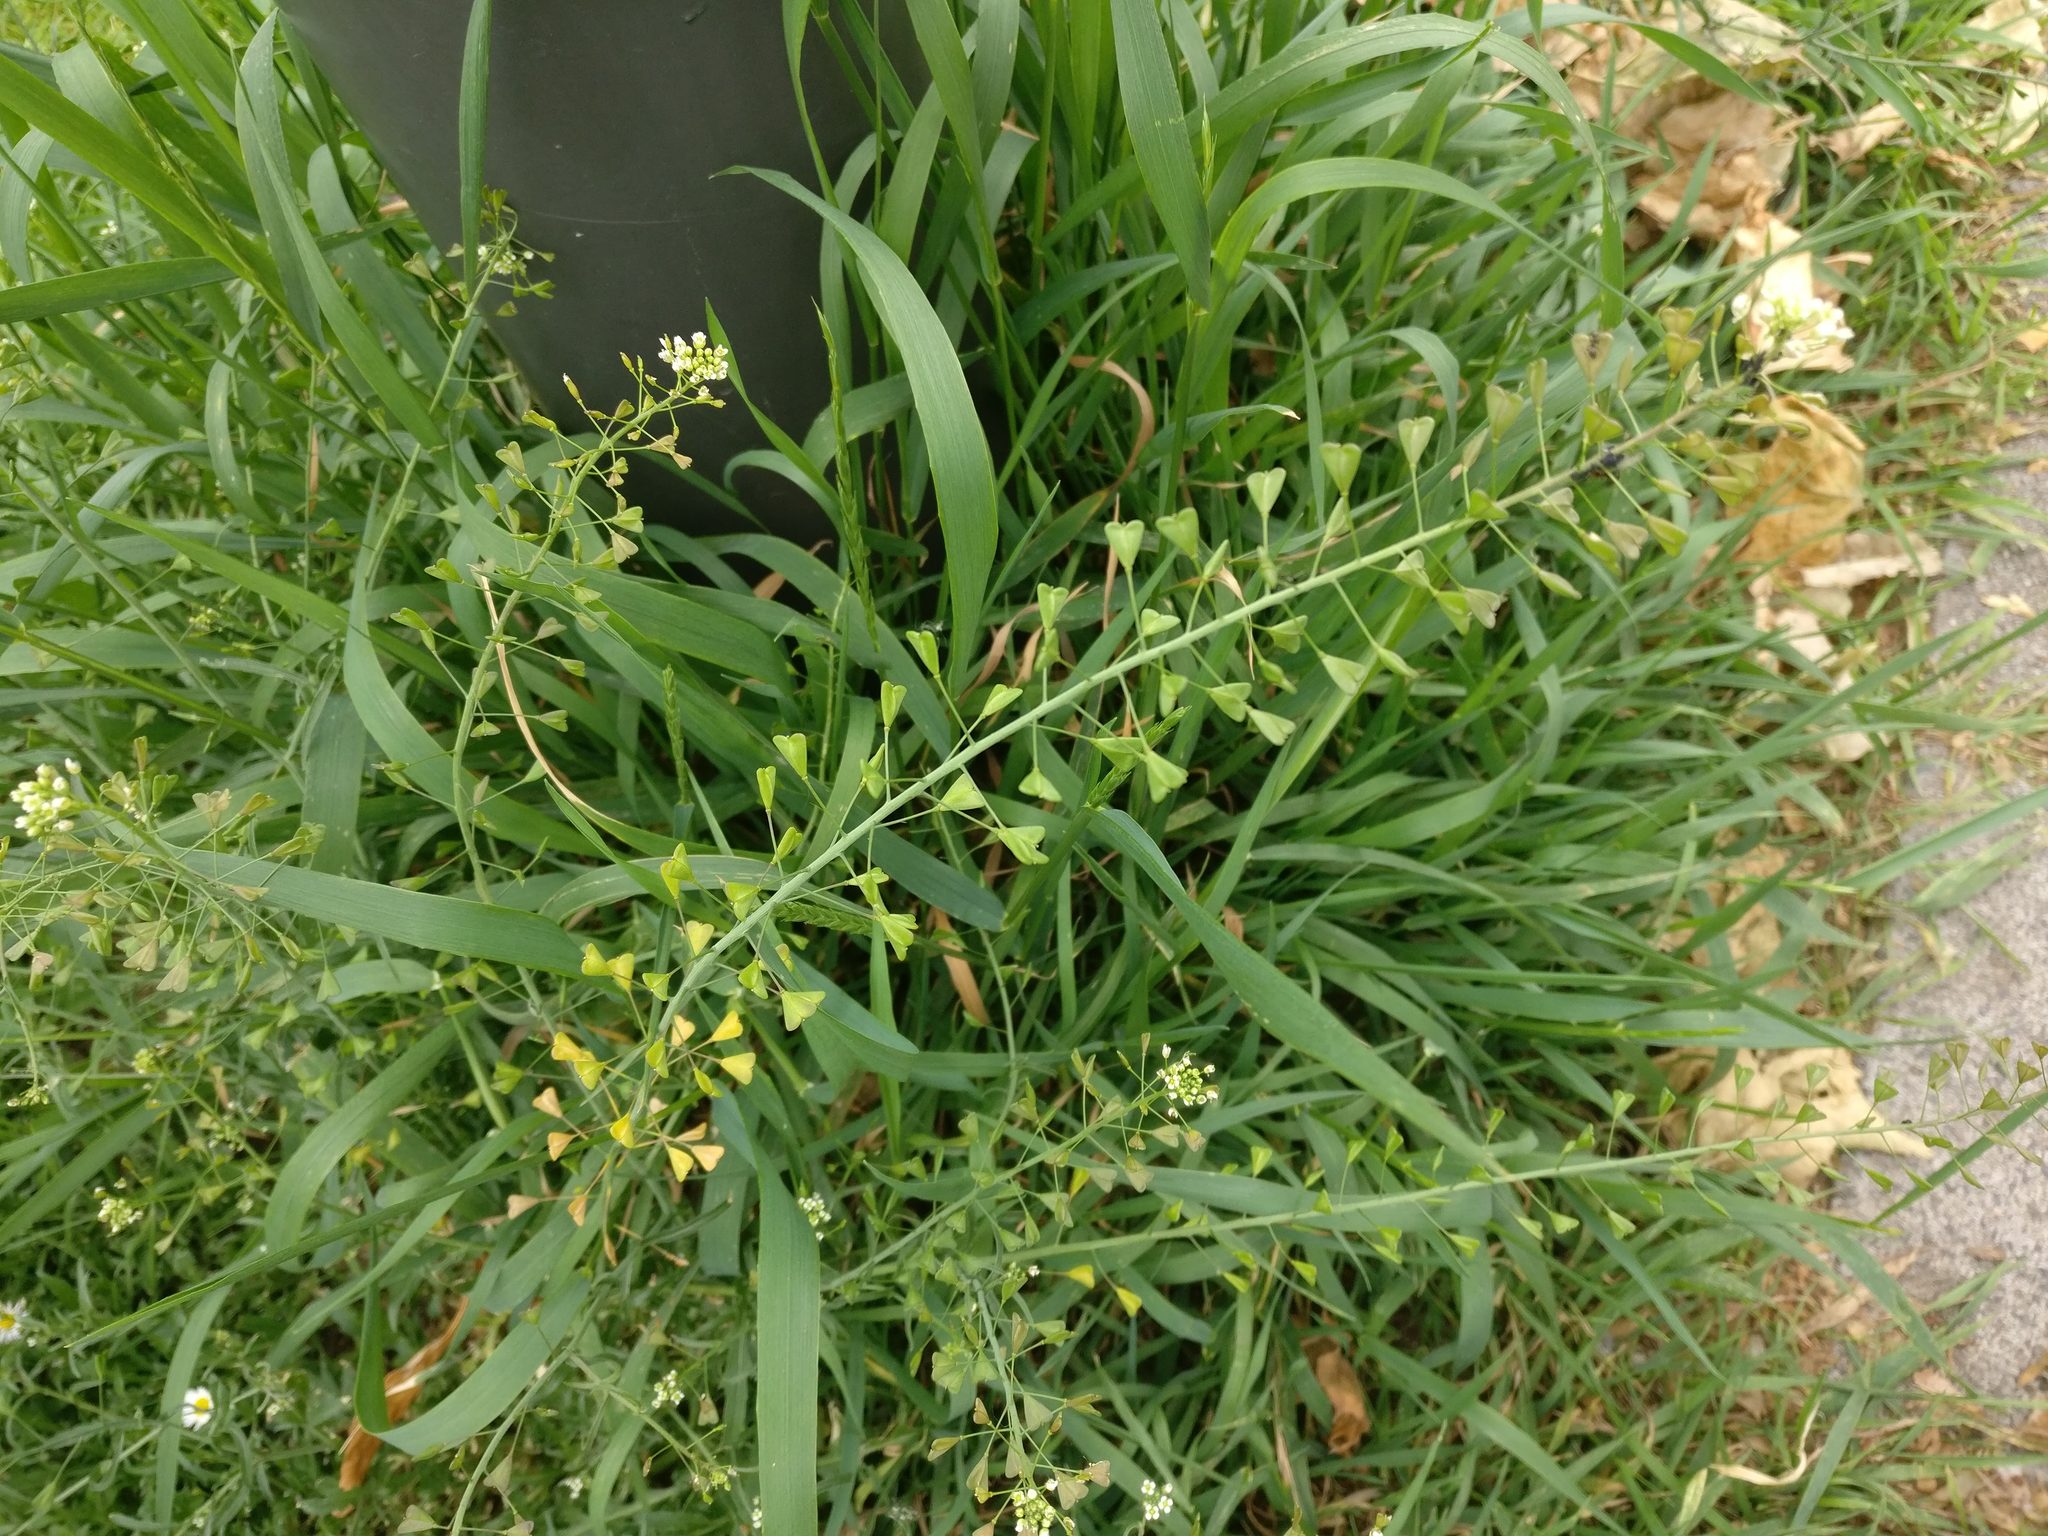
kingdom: Plantae
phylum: Tracheophyta
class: Magnoliopsida
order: Brassicales
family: Brassicaceae
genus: Capsella
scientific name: Capsella bursa-pastoris
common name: Shepherd's purse
